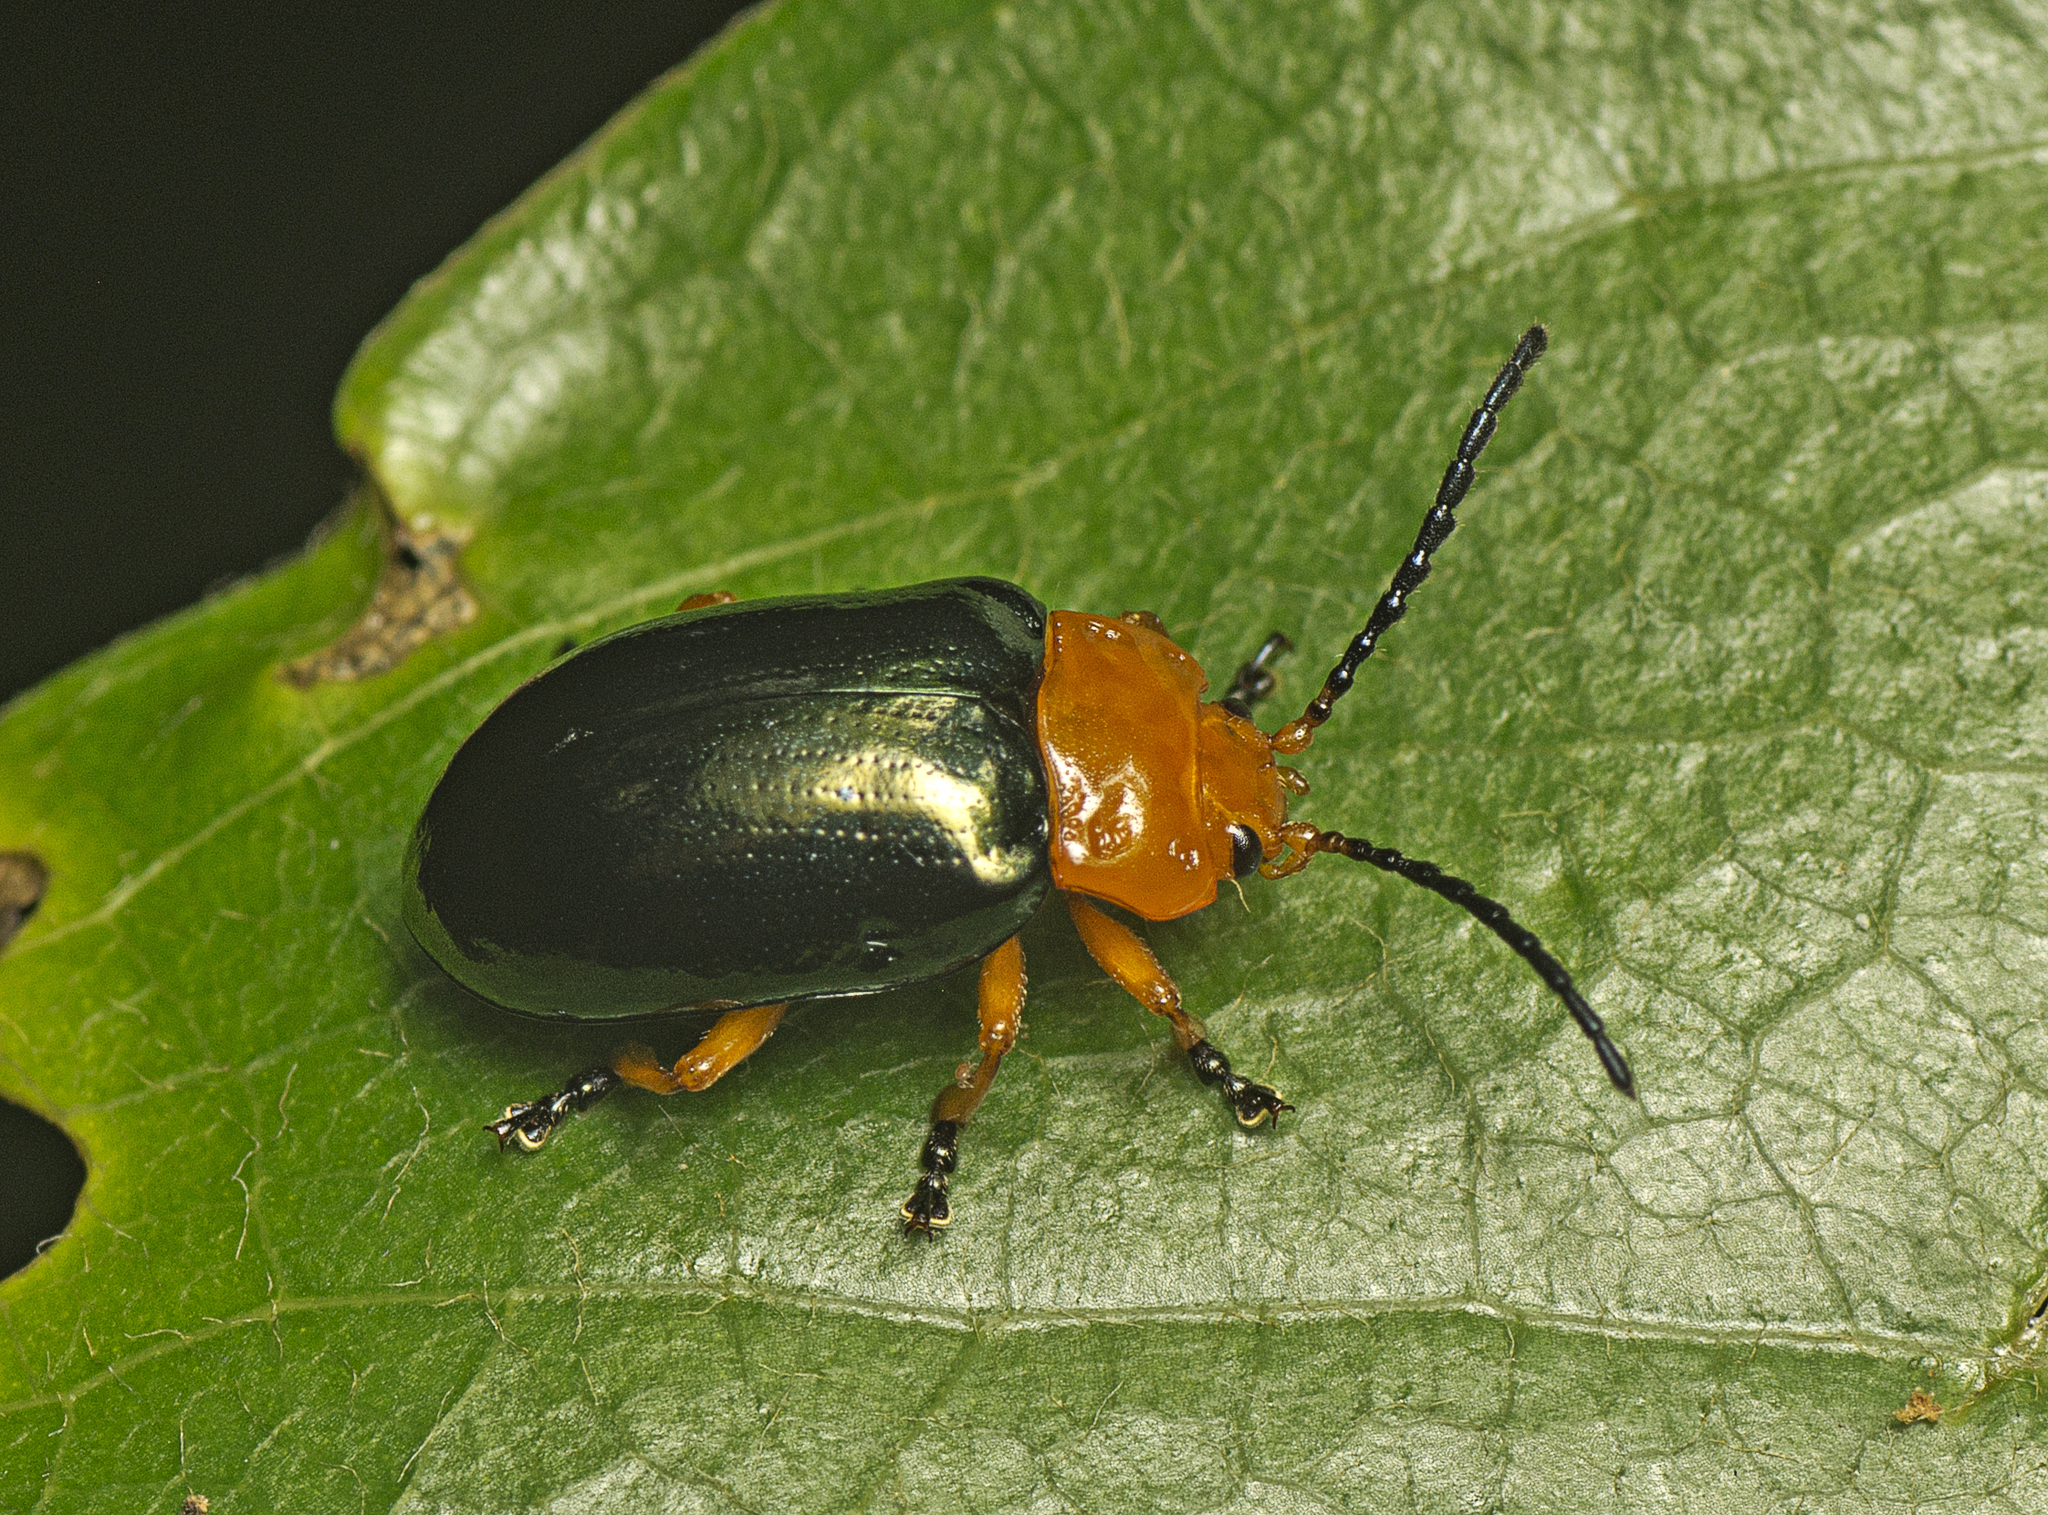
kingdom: Animalia
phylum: Arthropoda
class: Insecta
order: Coleoptera
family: Chrysomelidae
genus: Lamprolina
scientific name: Lamprolina
